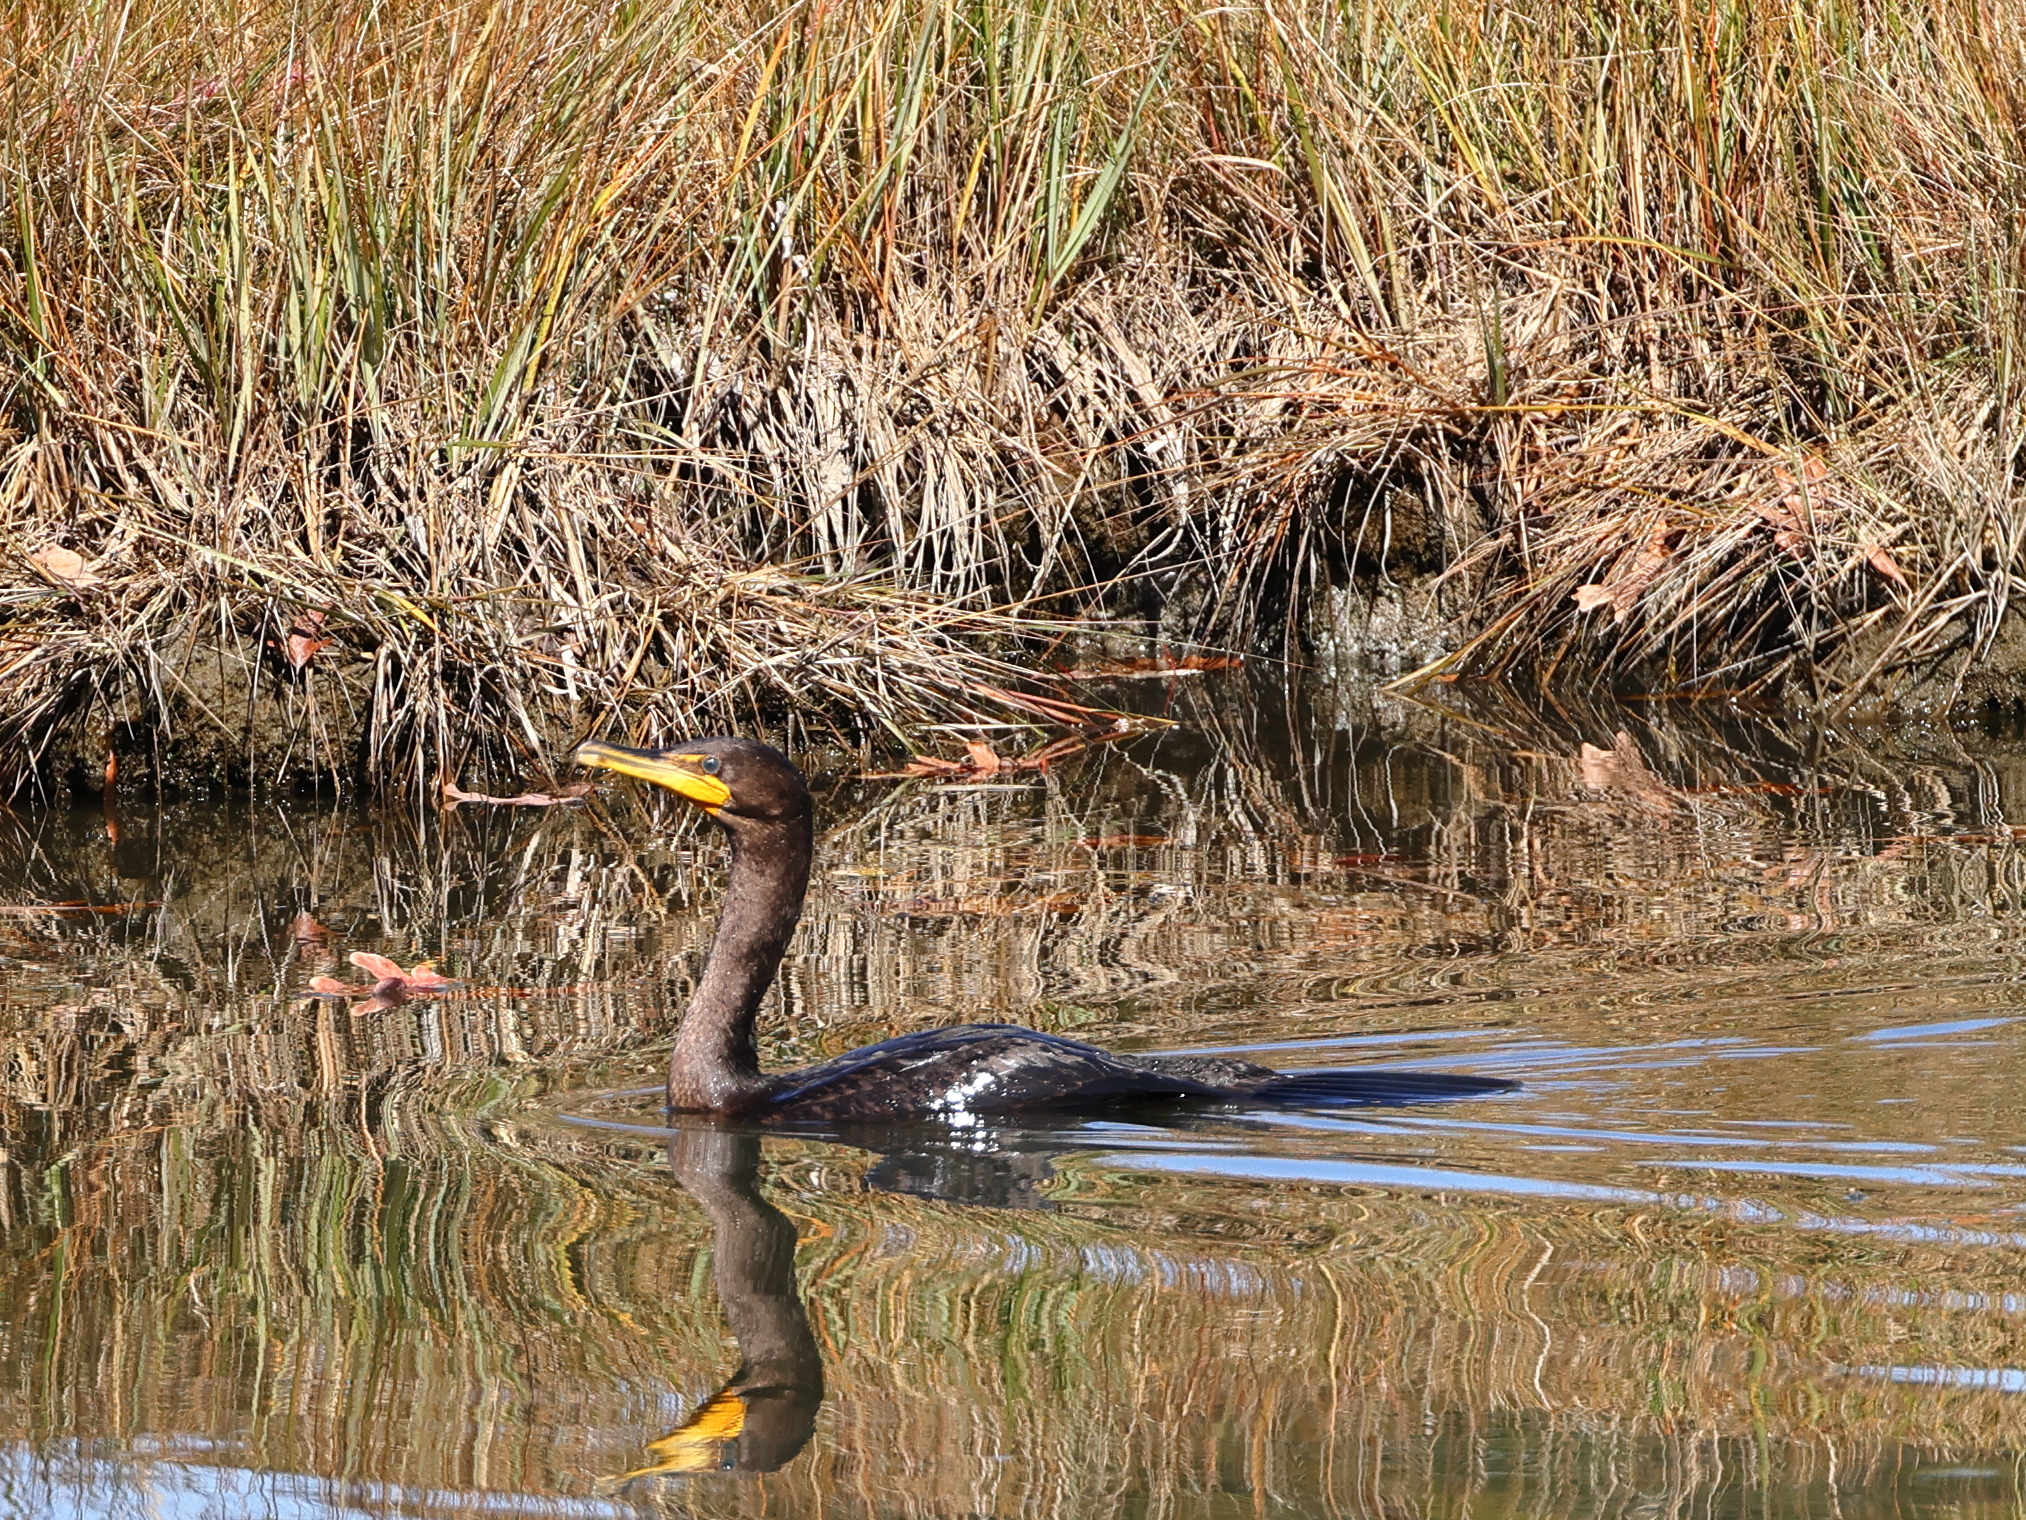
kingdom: Animalia
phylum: Chordata
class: Aves
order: Suliformes
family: Phalacrocoracidae
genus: Phalacrocorax
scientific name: Phalacrocorax auritus
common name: Double-crested cormorant
